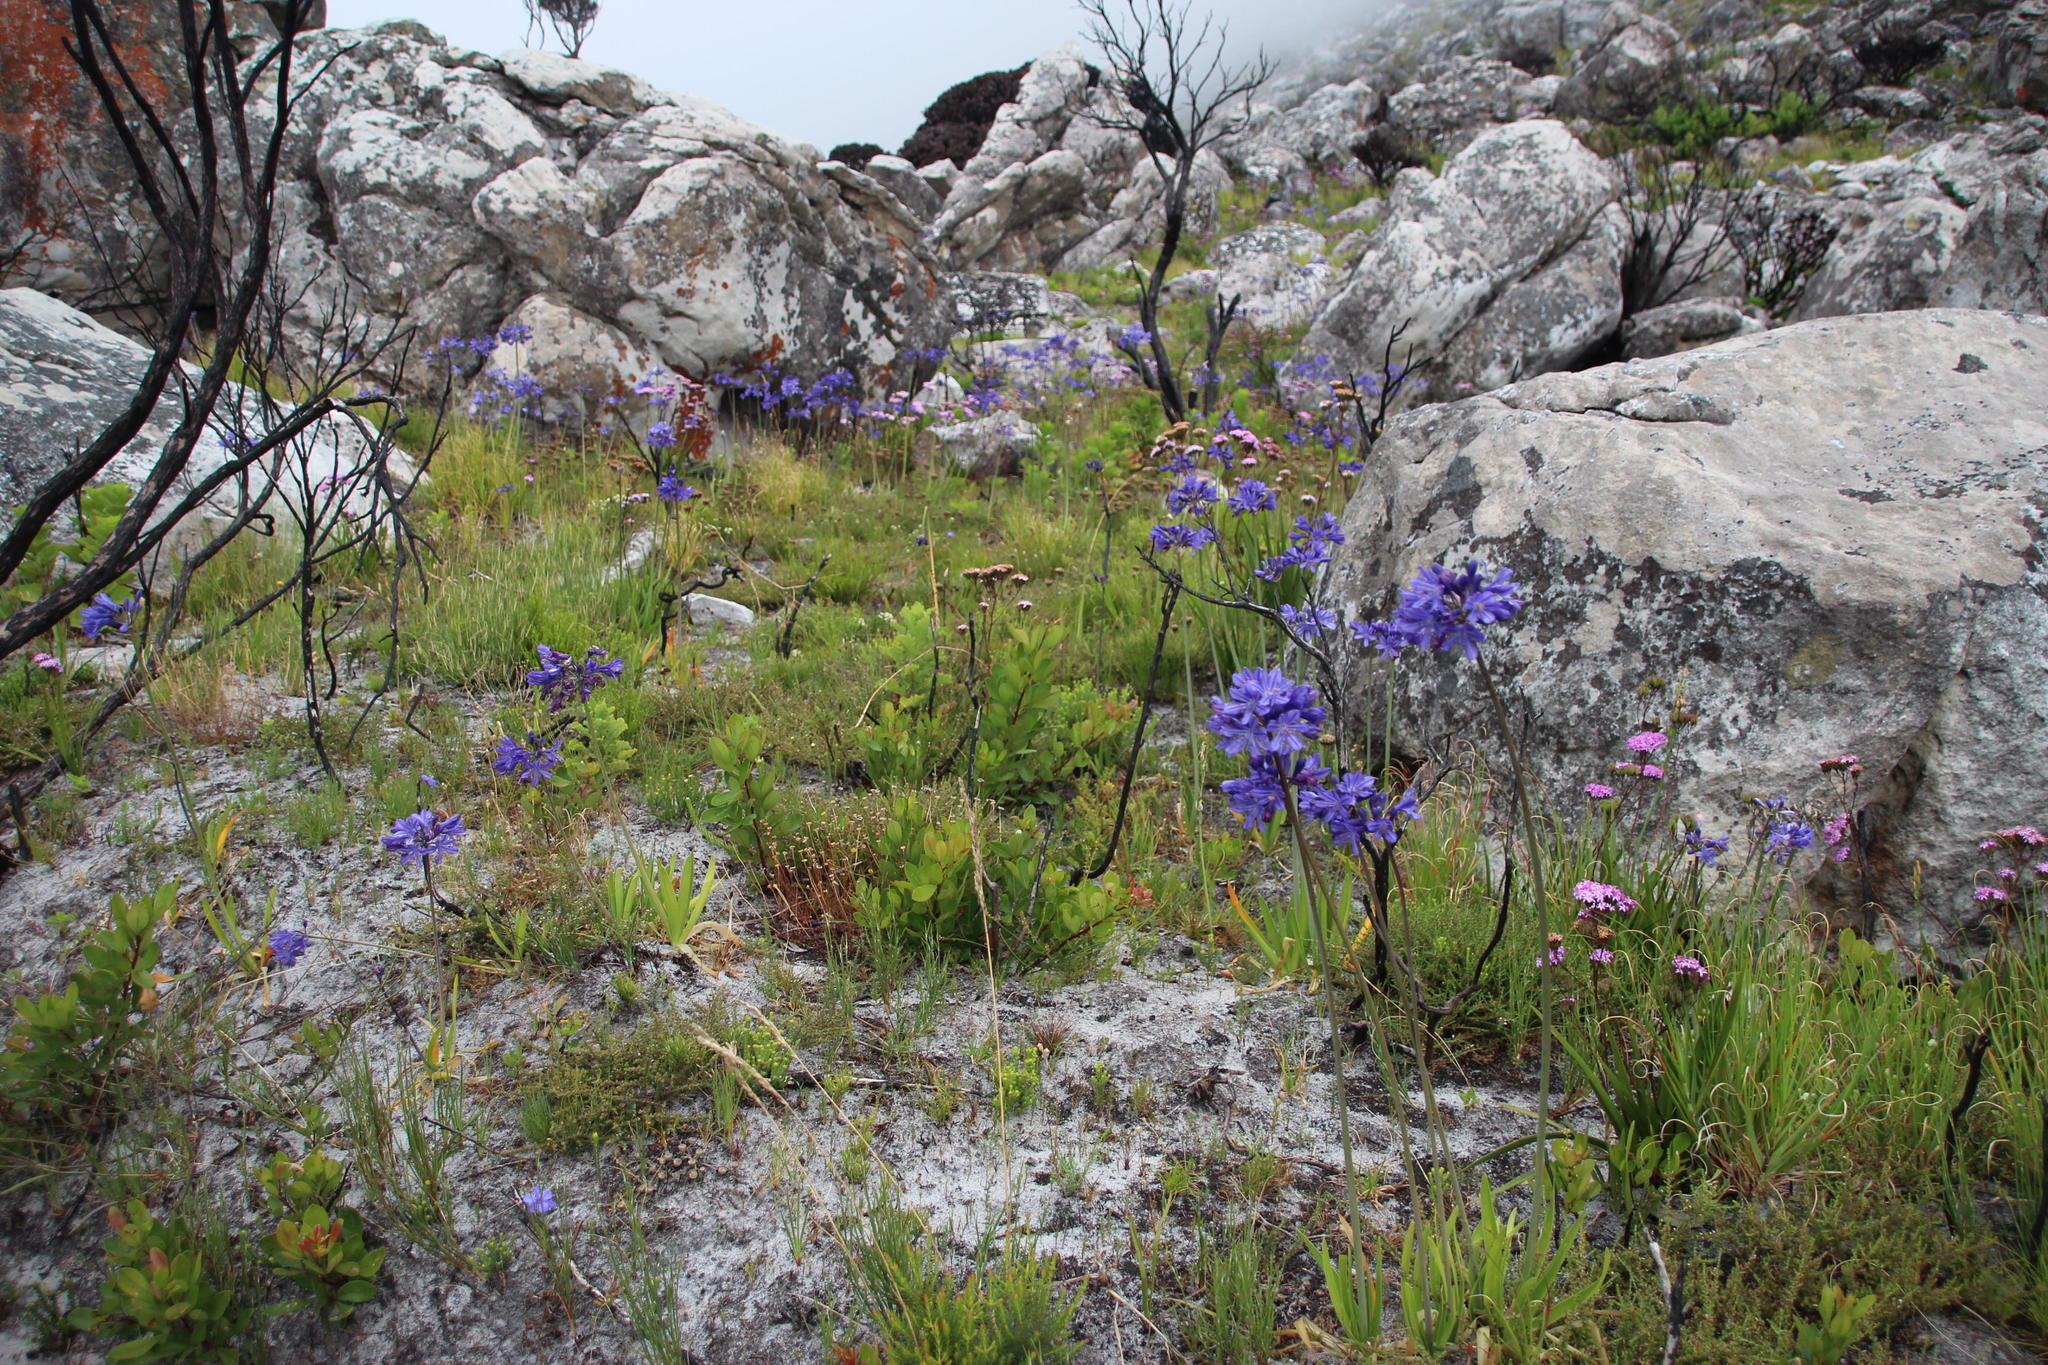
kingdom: Plantae
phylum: Tracheophyta
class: Liliopsida
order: Asparagales
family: Amaryllidaceae
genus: Agapanthus
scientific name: Agapanthus africanus
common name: Lily-of-the-nile
